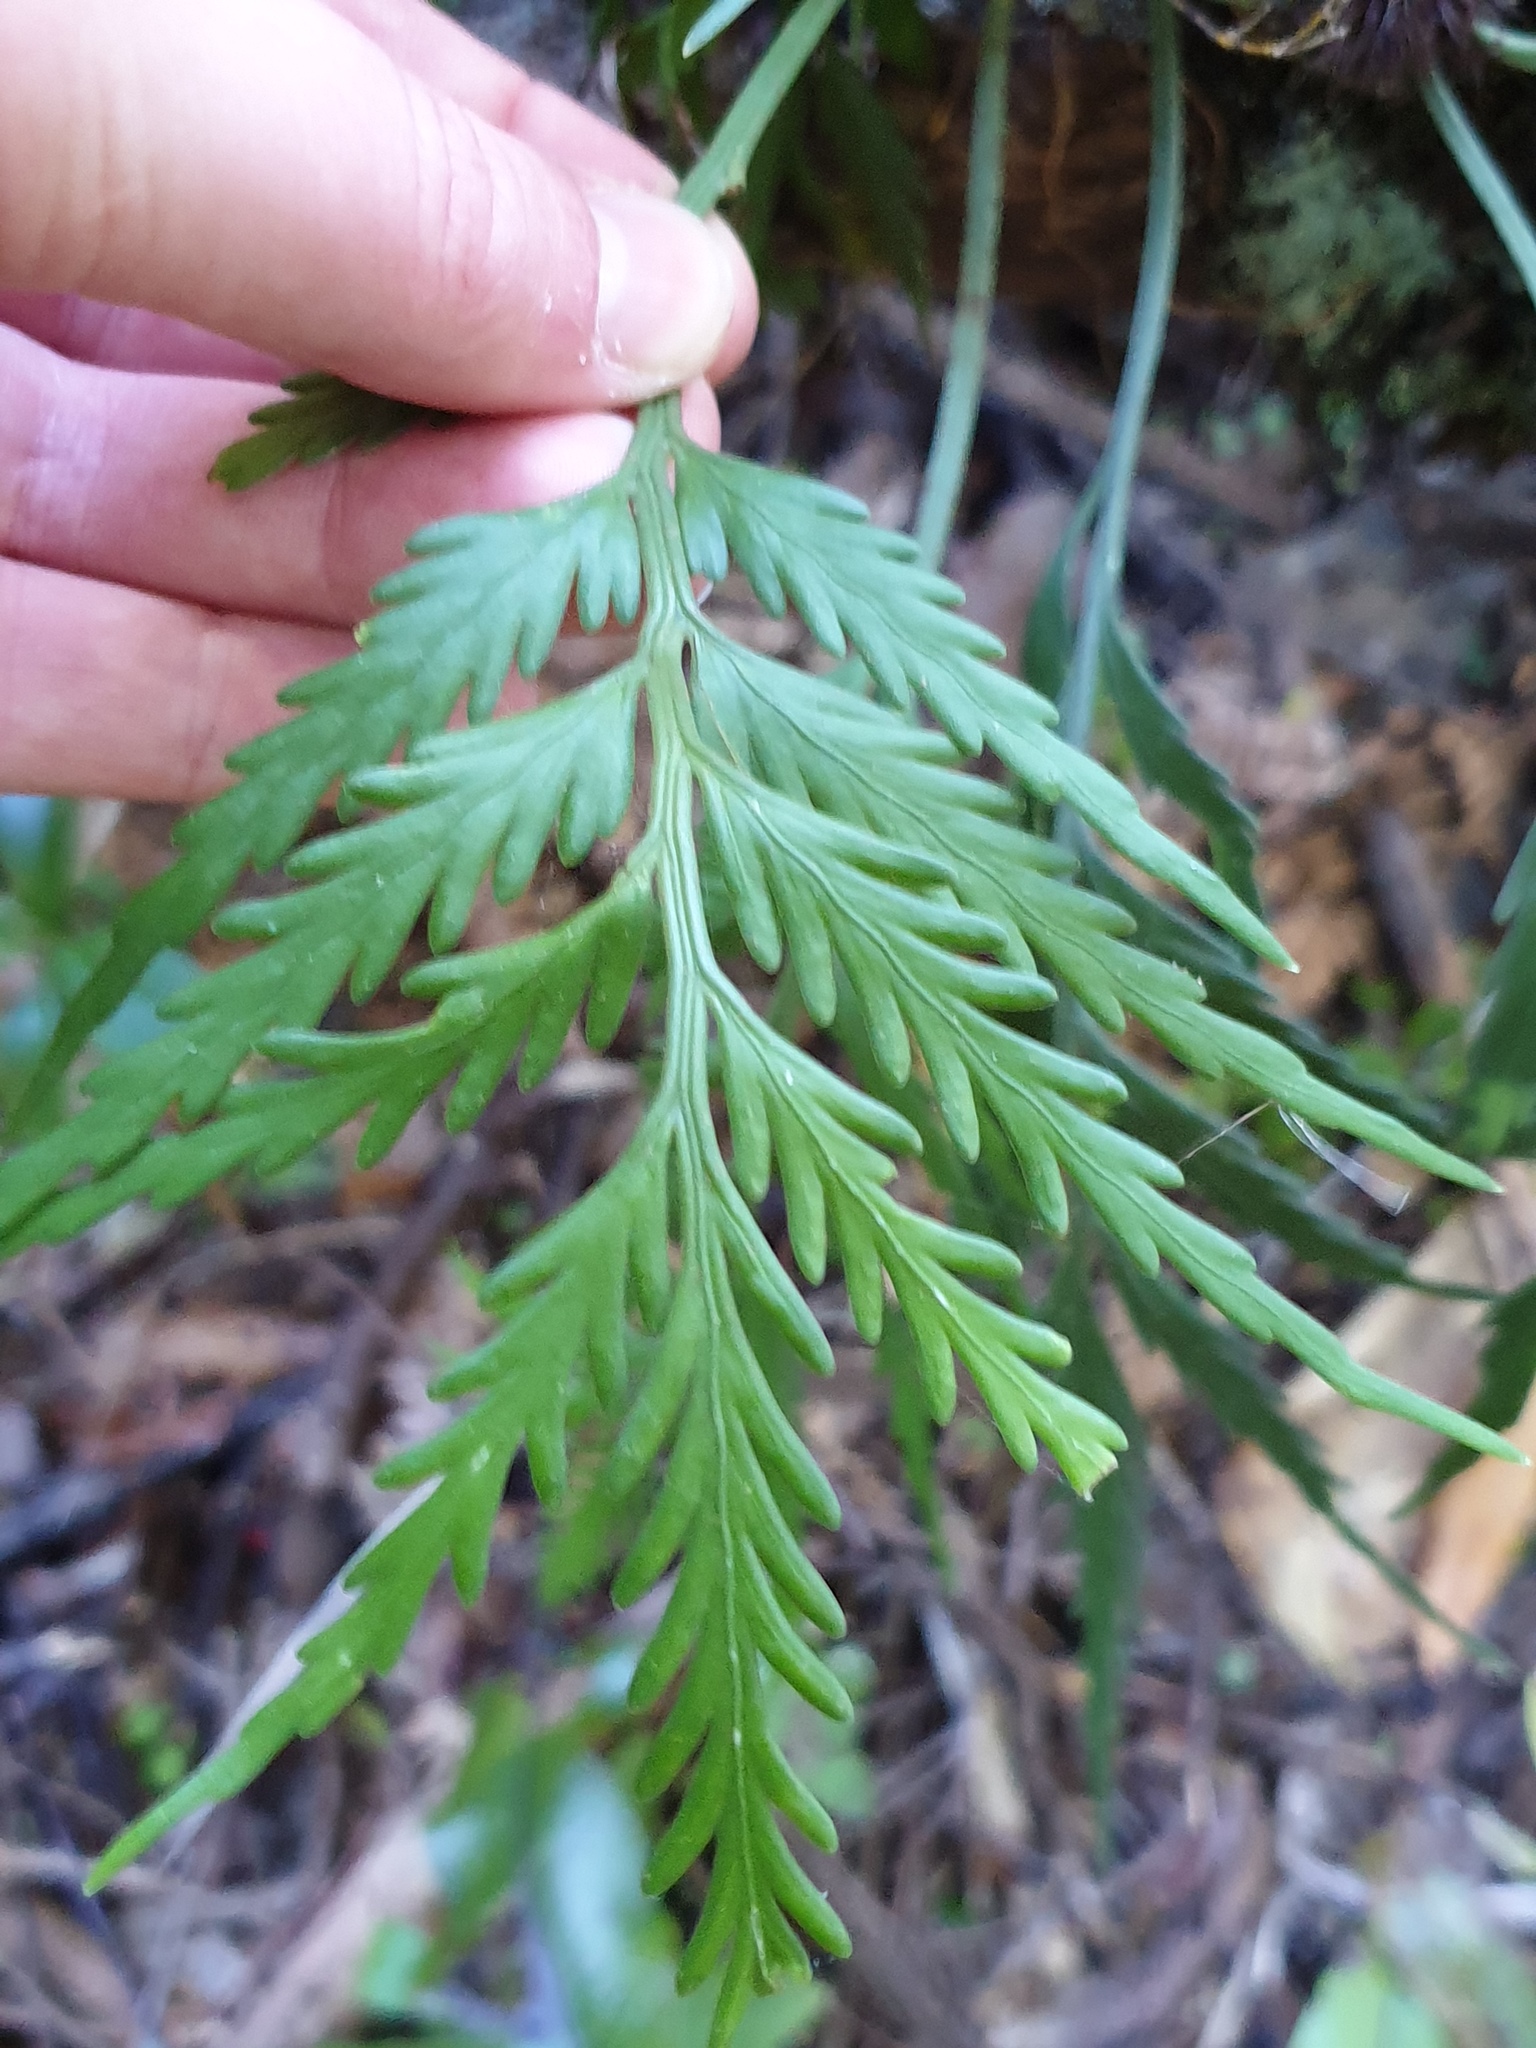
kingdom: Plantae
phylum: Tracheophyta
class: Polypodiopsida
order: Polypodiales
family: Aspleniaceae
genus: Asplenium
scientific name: Asplenium flaccidum
